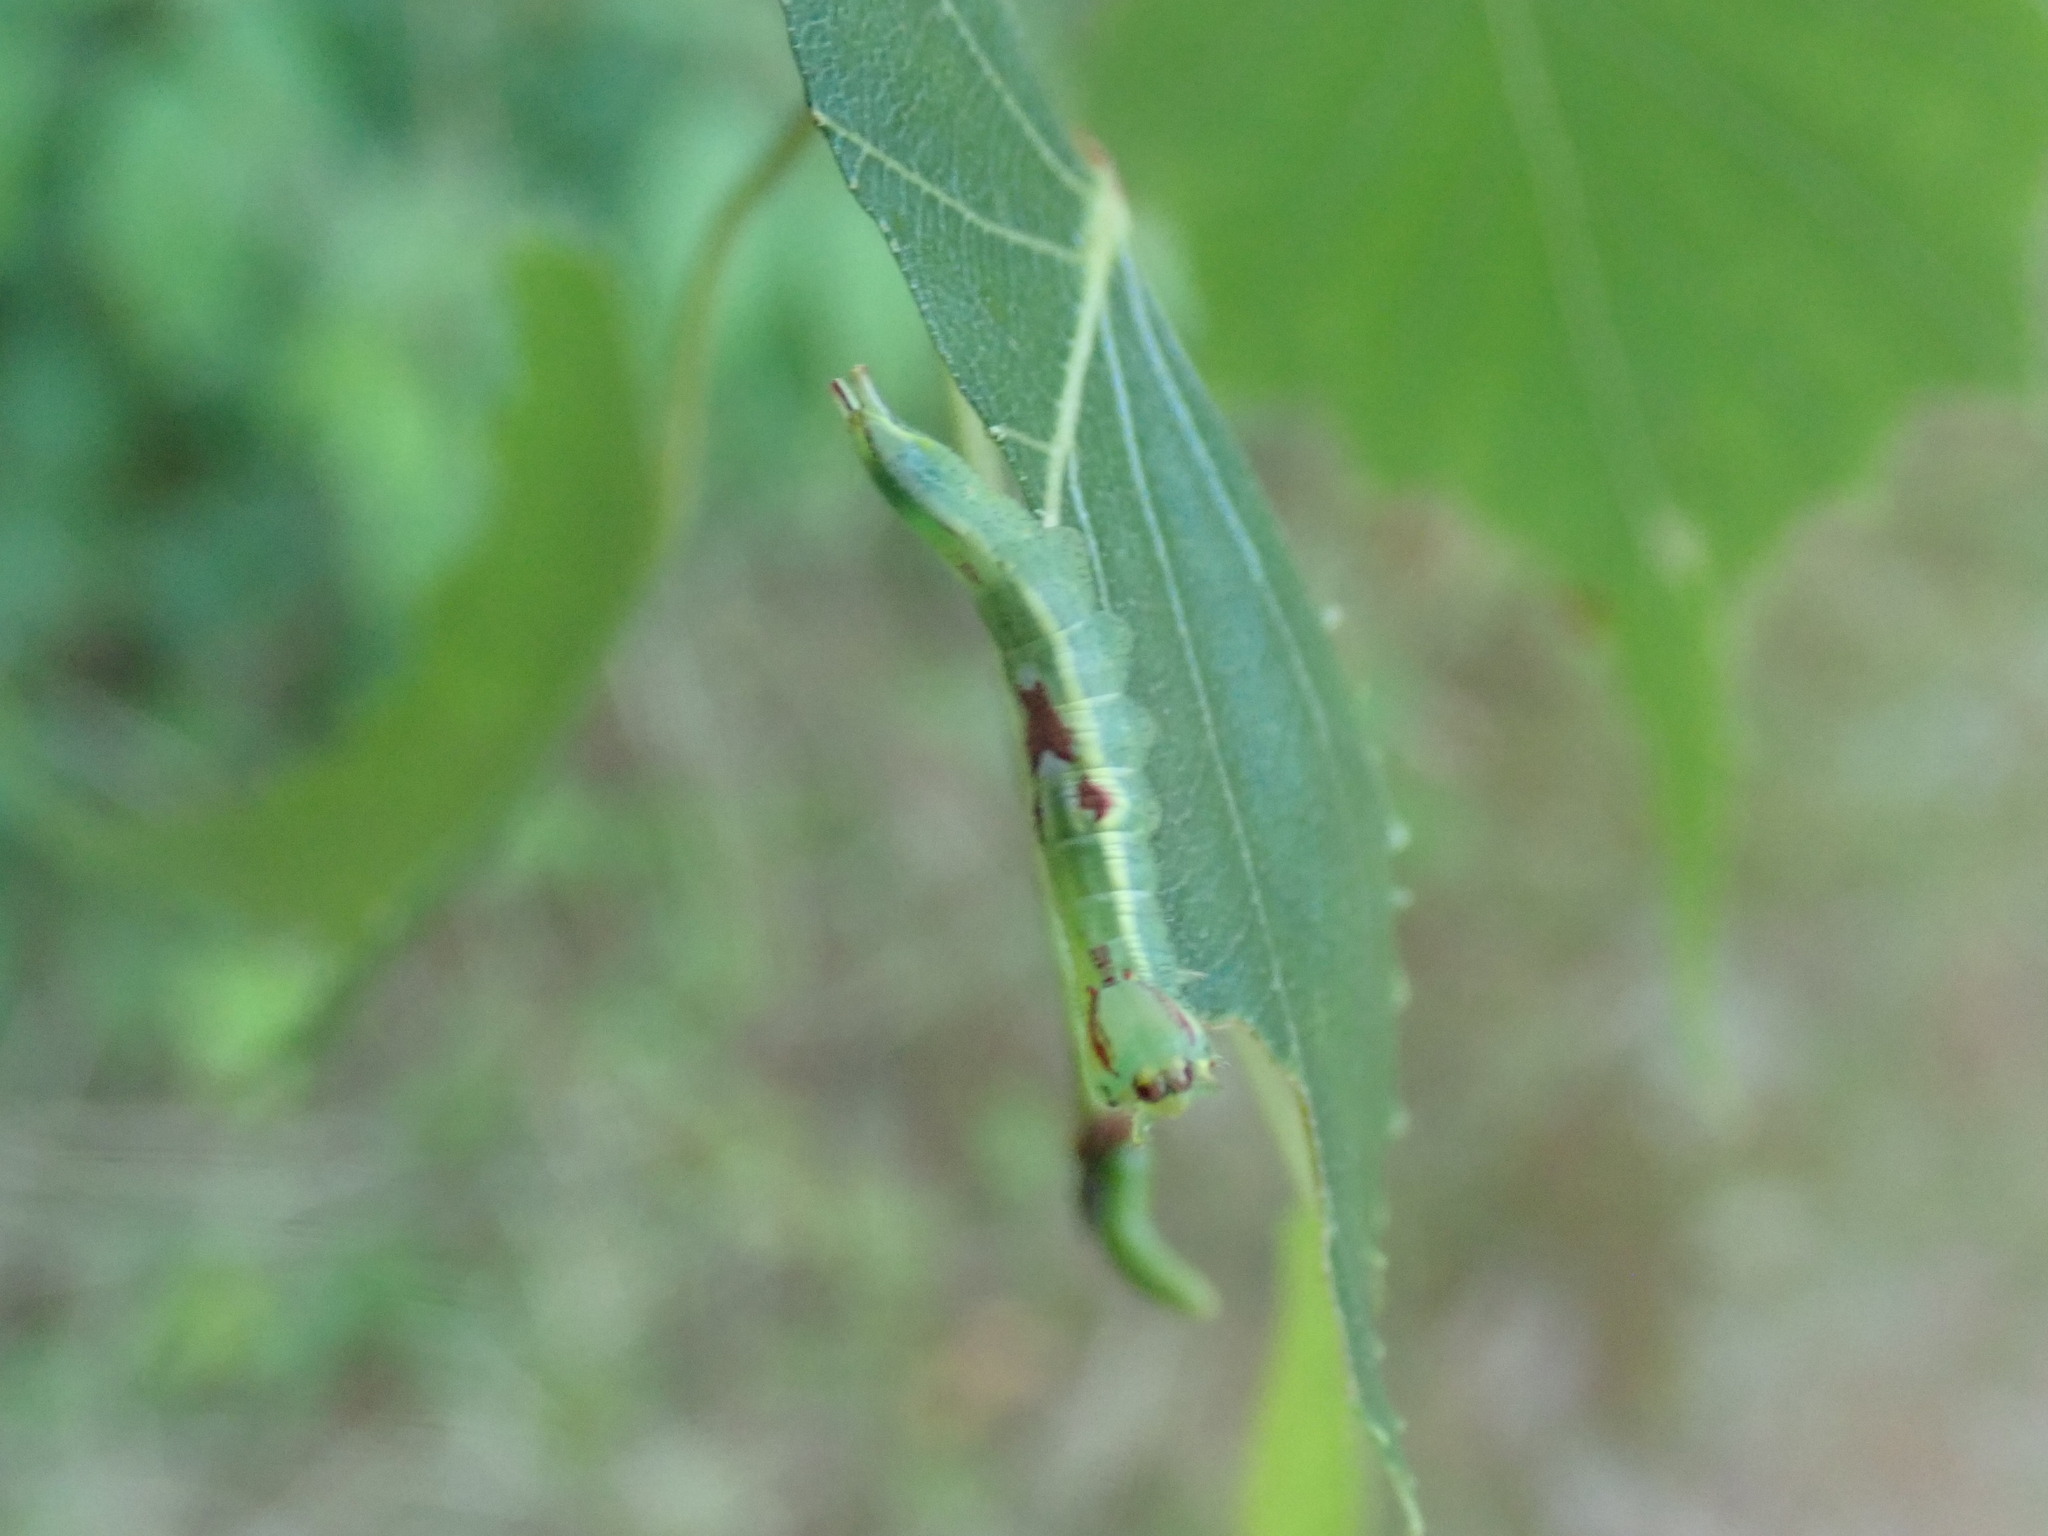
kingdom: Animalia
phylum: Arthropoda
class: Insecta
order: Lepidoptera
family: Notodontidae
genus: Disphragis
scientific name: Disphragis Cecrita guttivitta
